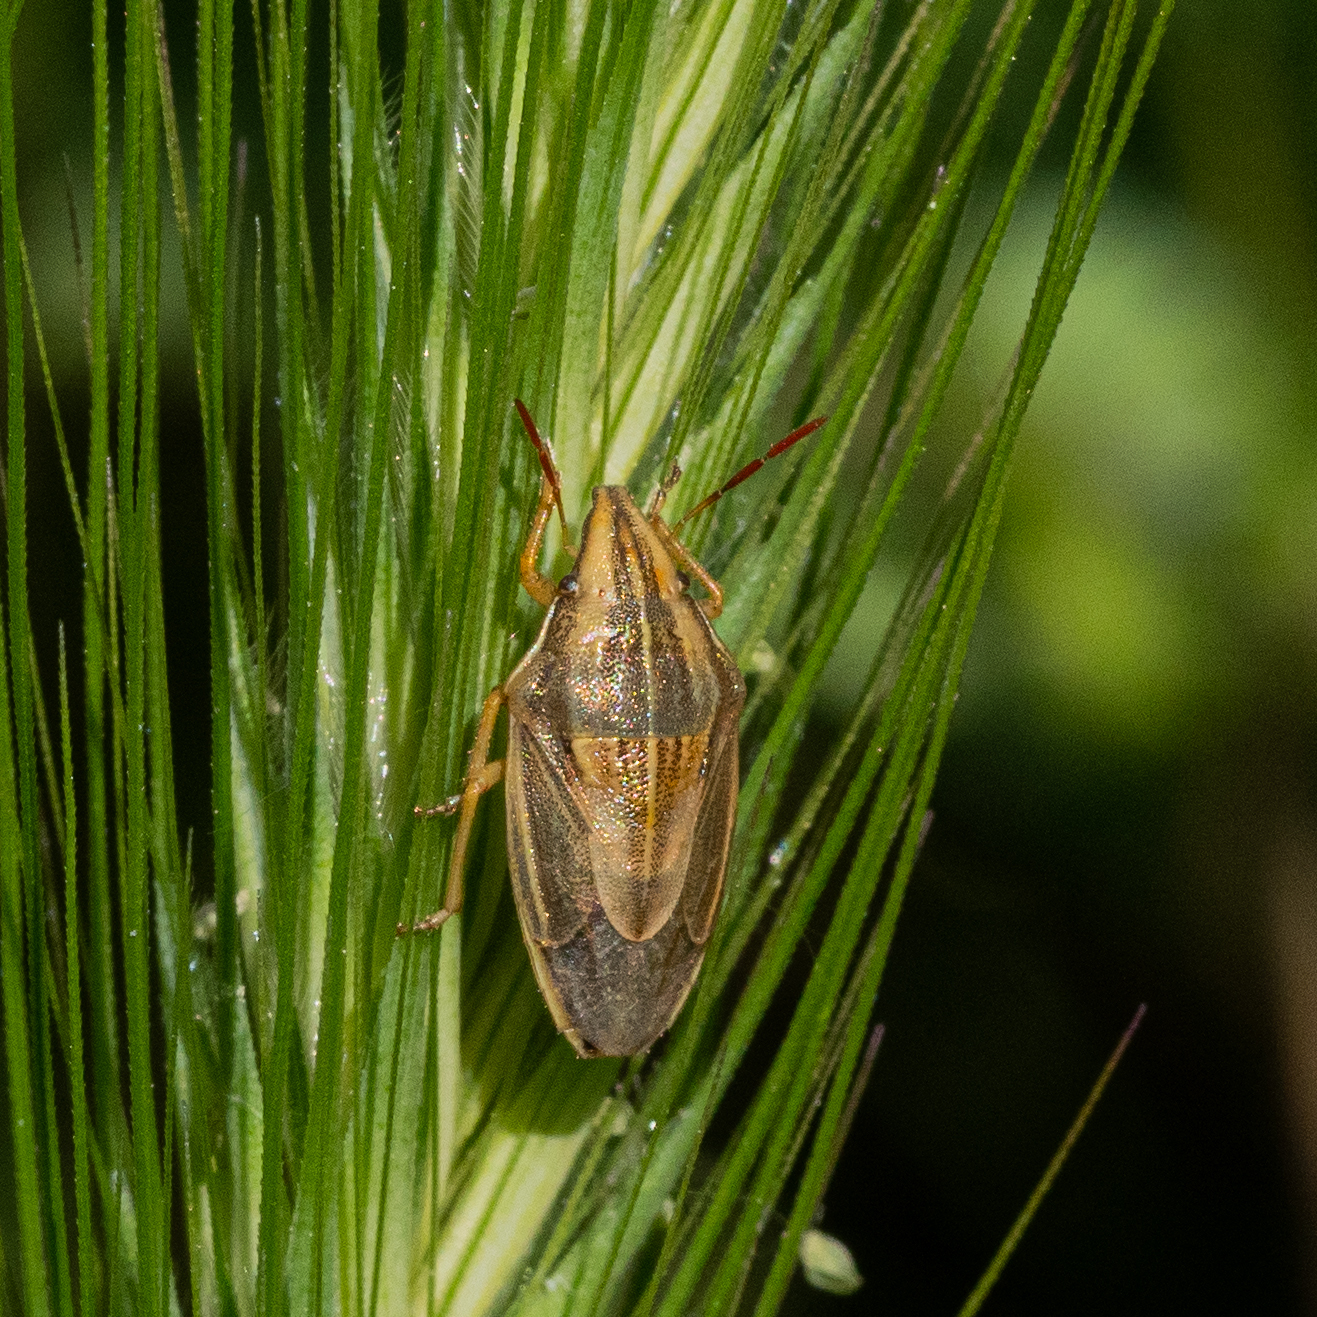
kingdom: Animalia
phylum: Arthropoda
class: Insecta
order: Hemiptera
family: Pentatomidae
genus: Aelia
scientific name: Aelia acuminata
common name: Bishop's mitre
